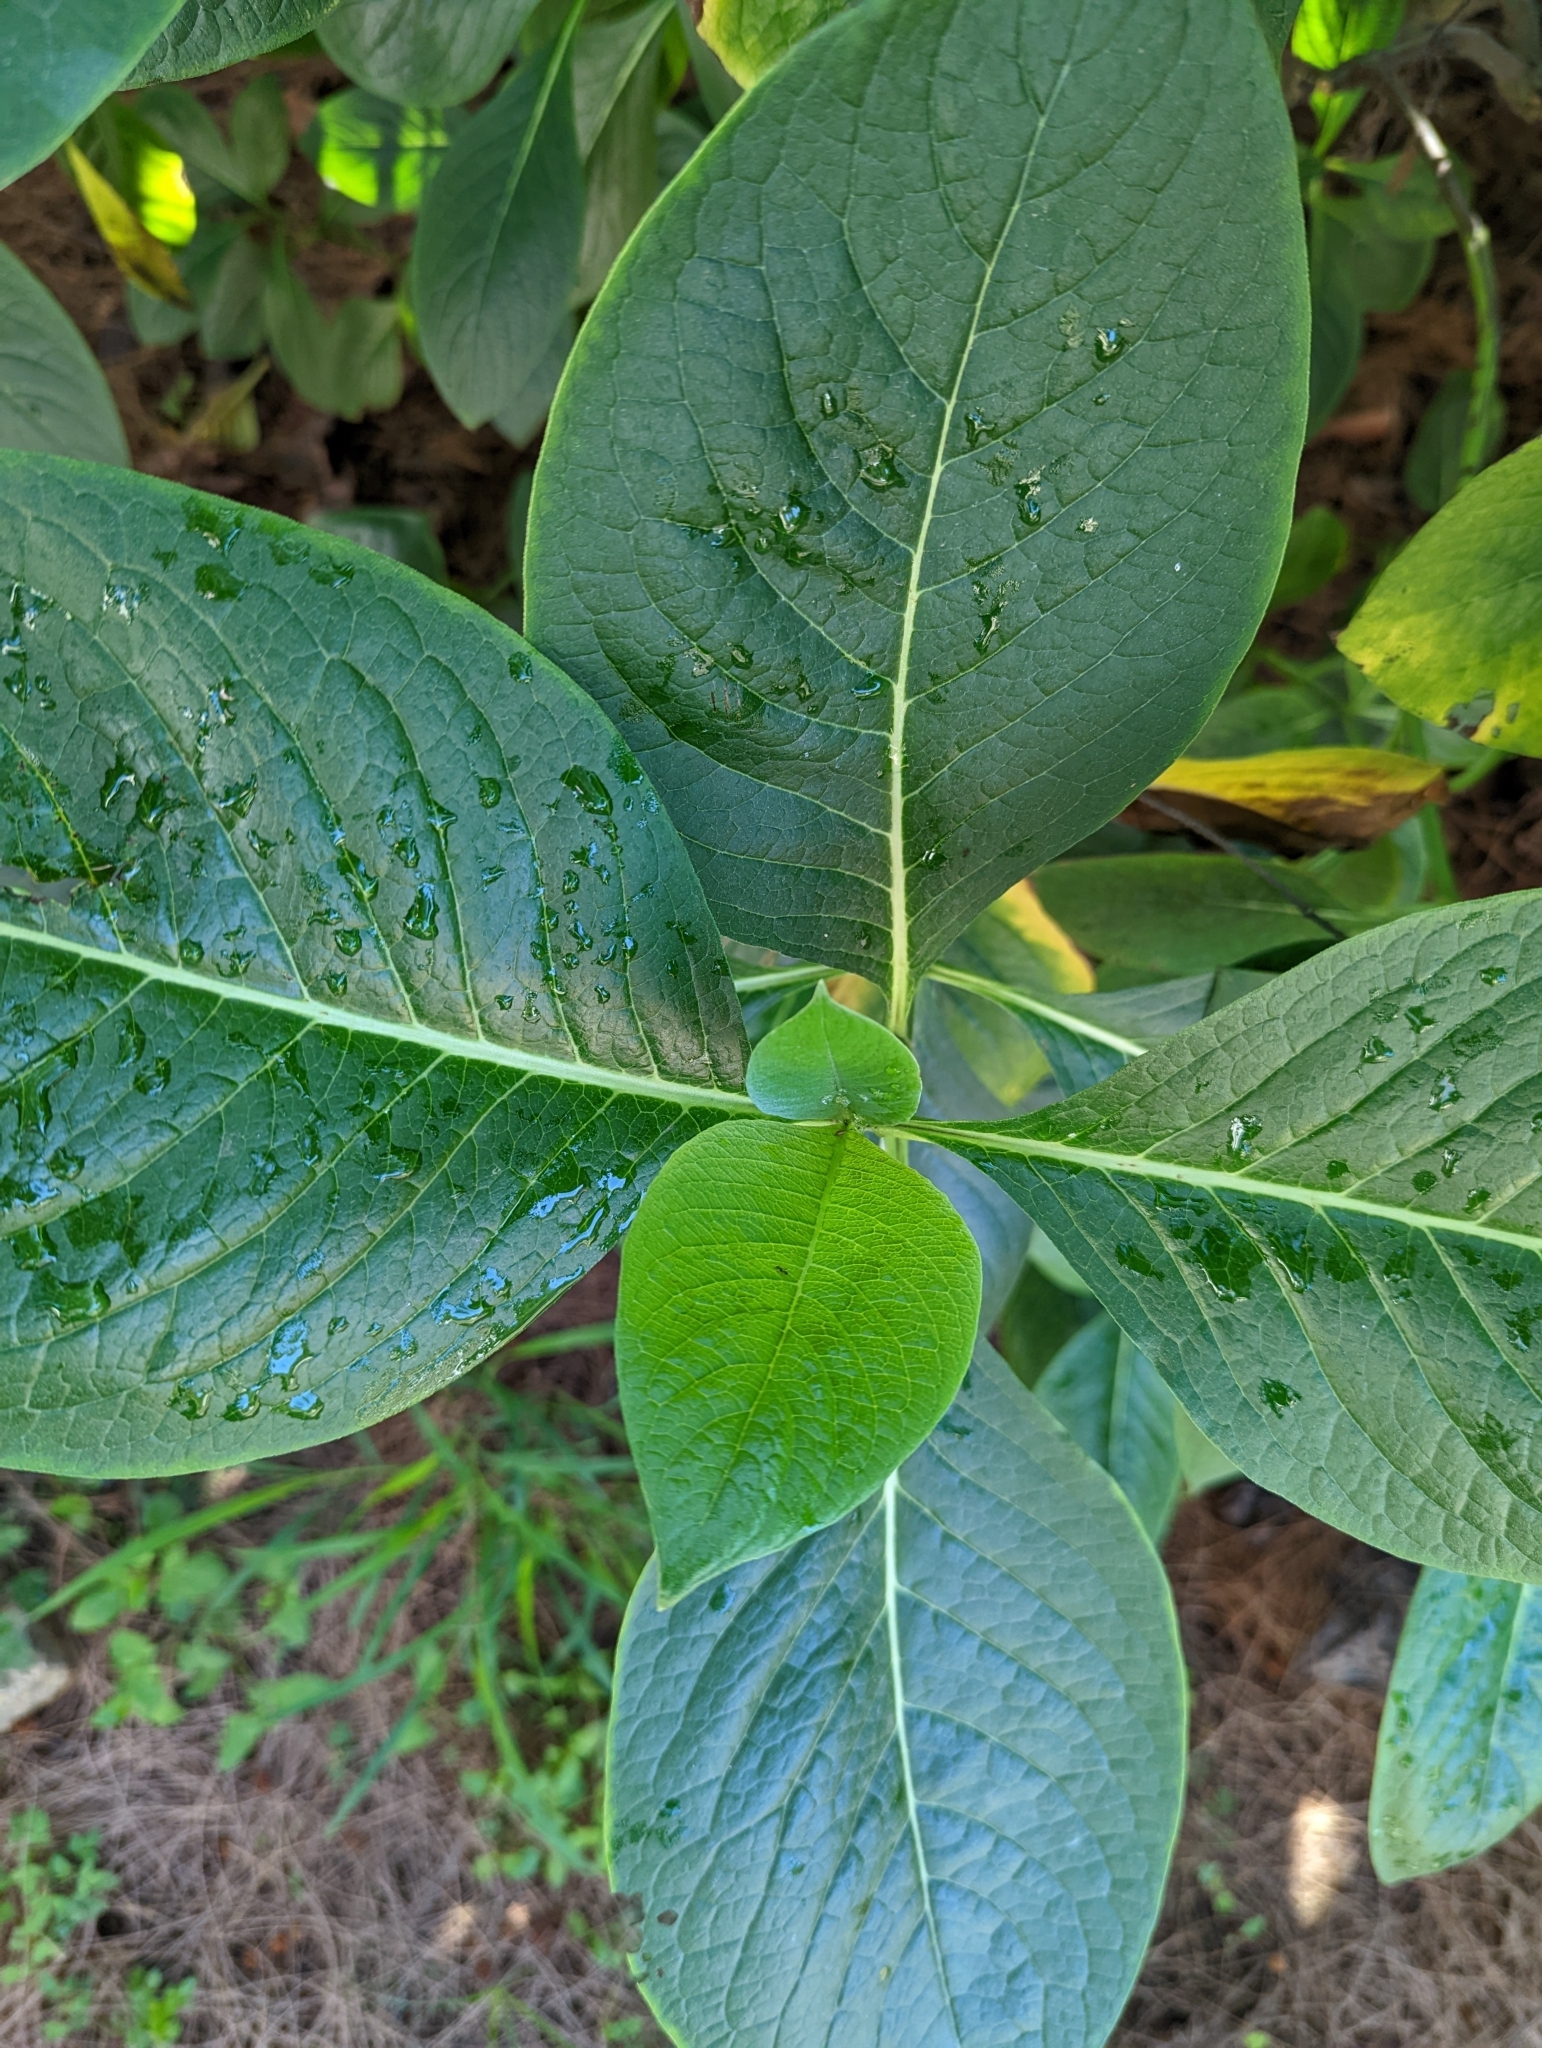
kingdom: Plantae
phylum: Tracheophyta
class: Magnoliopsida
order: Asterales
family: Asteraceae
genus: Gymnanthemum
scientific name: Gymnanthemum amygdalinum
